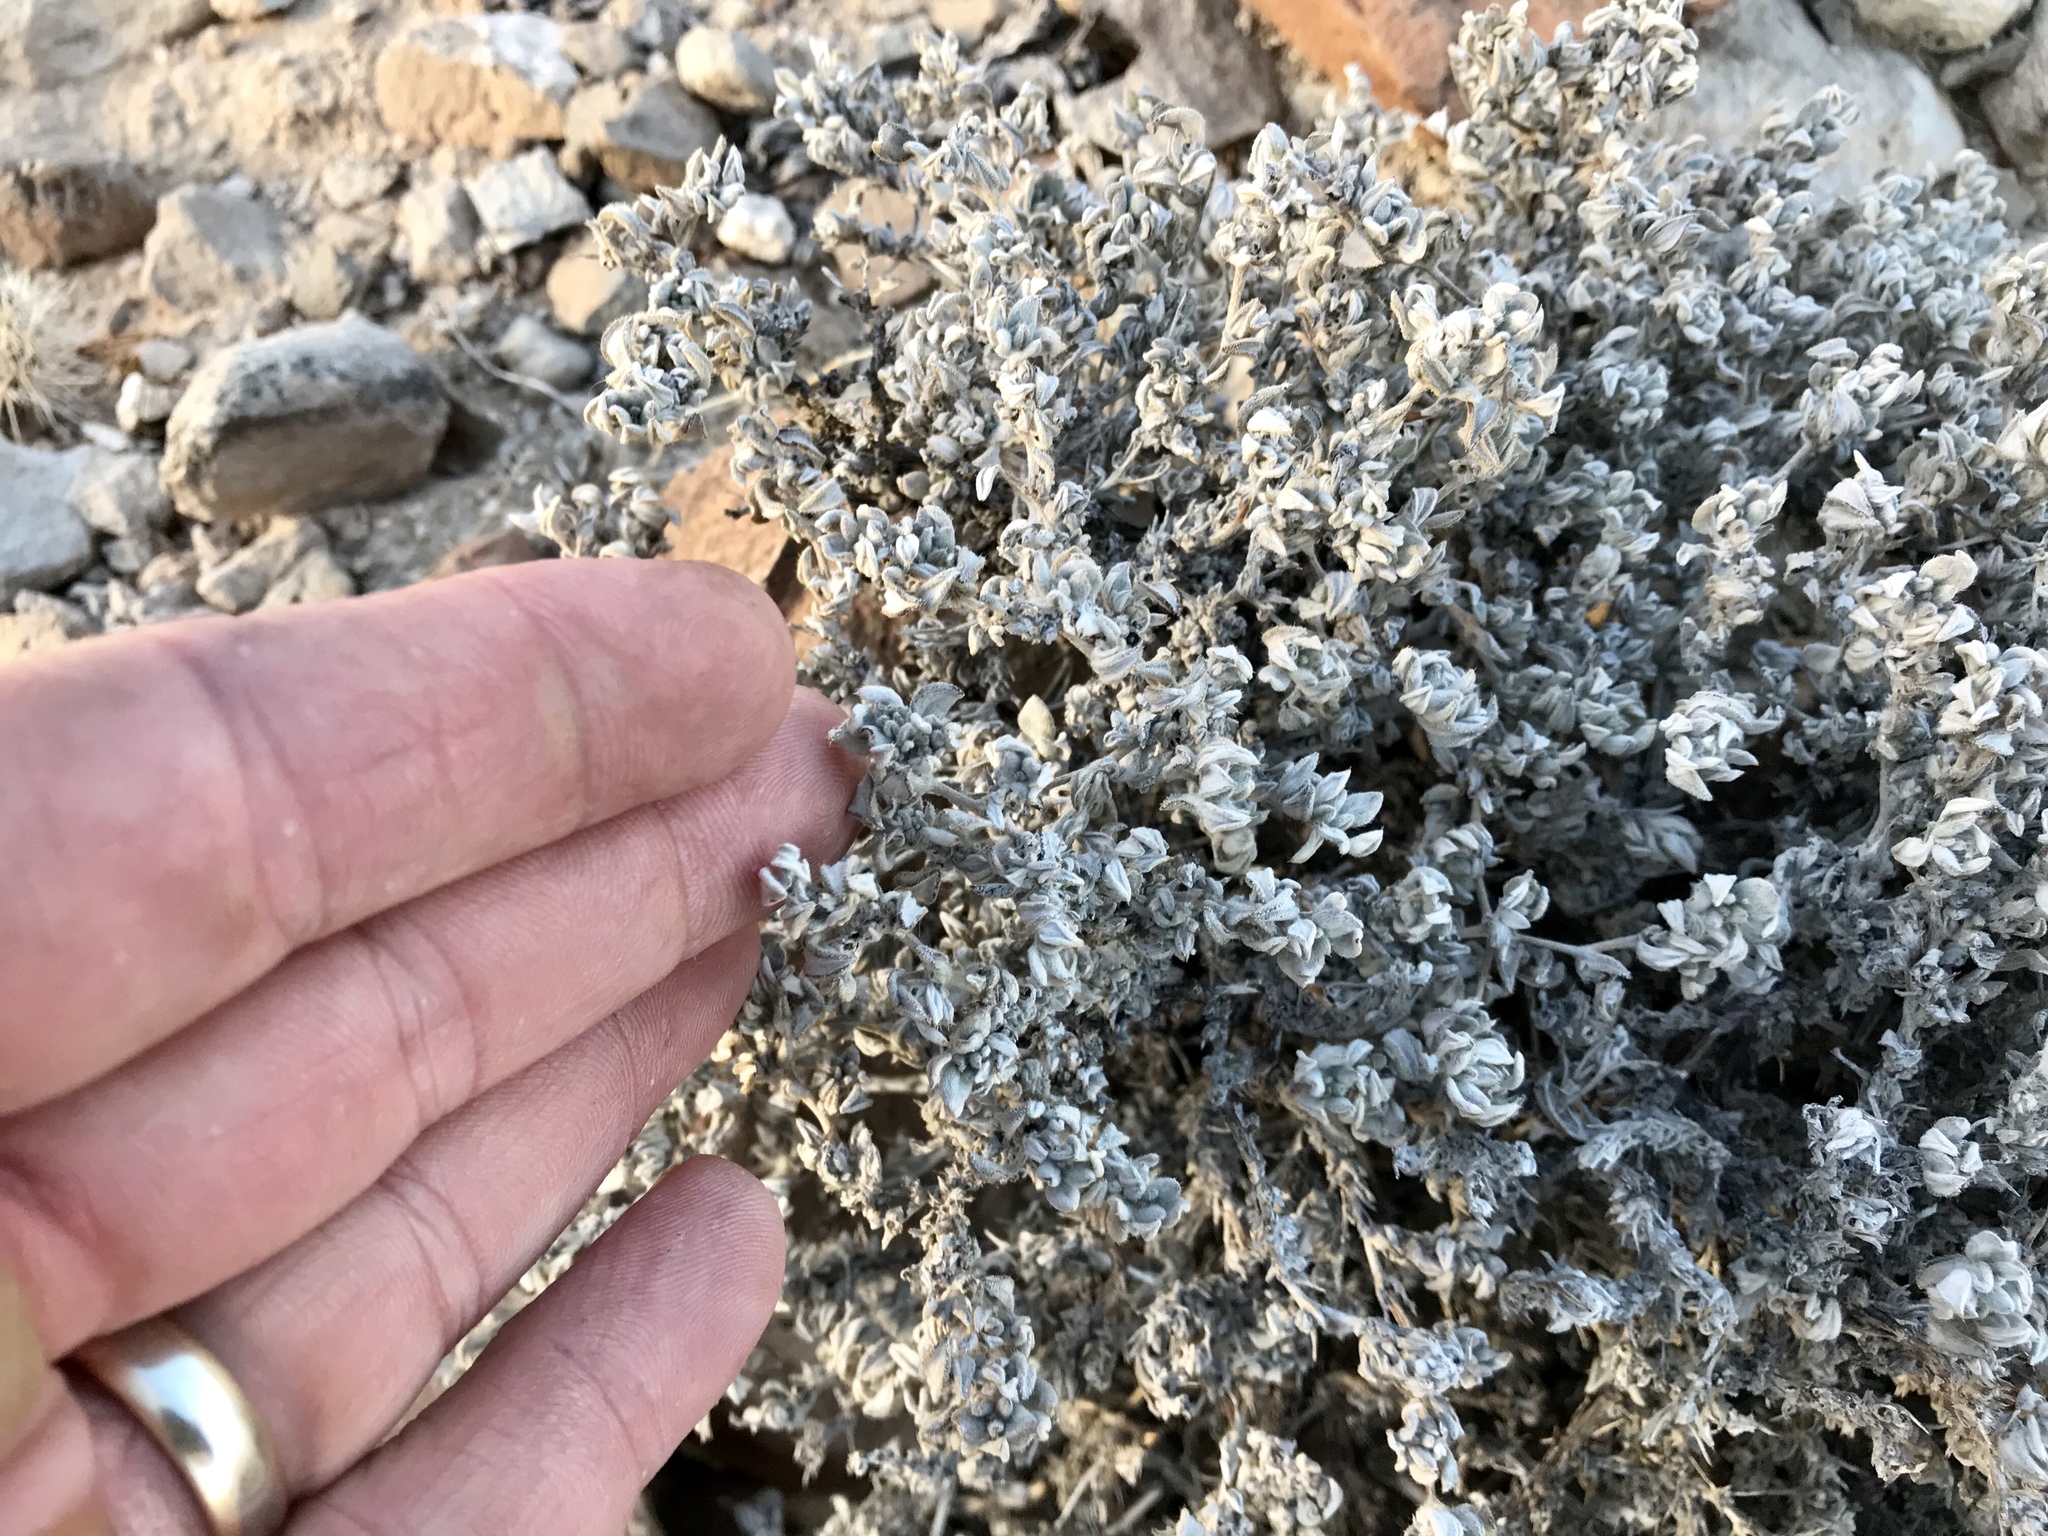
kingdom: Plantae
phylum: Tracheophyta
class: Magnoliopsida
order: Boraginales
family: Ehretiaceae
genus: Tiquilia
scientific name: Tiquilia canescens
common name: Hairy tiquilia
